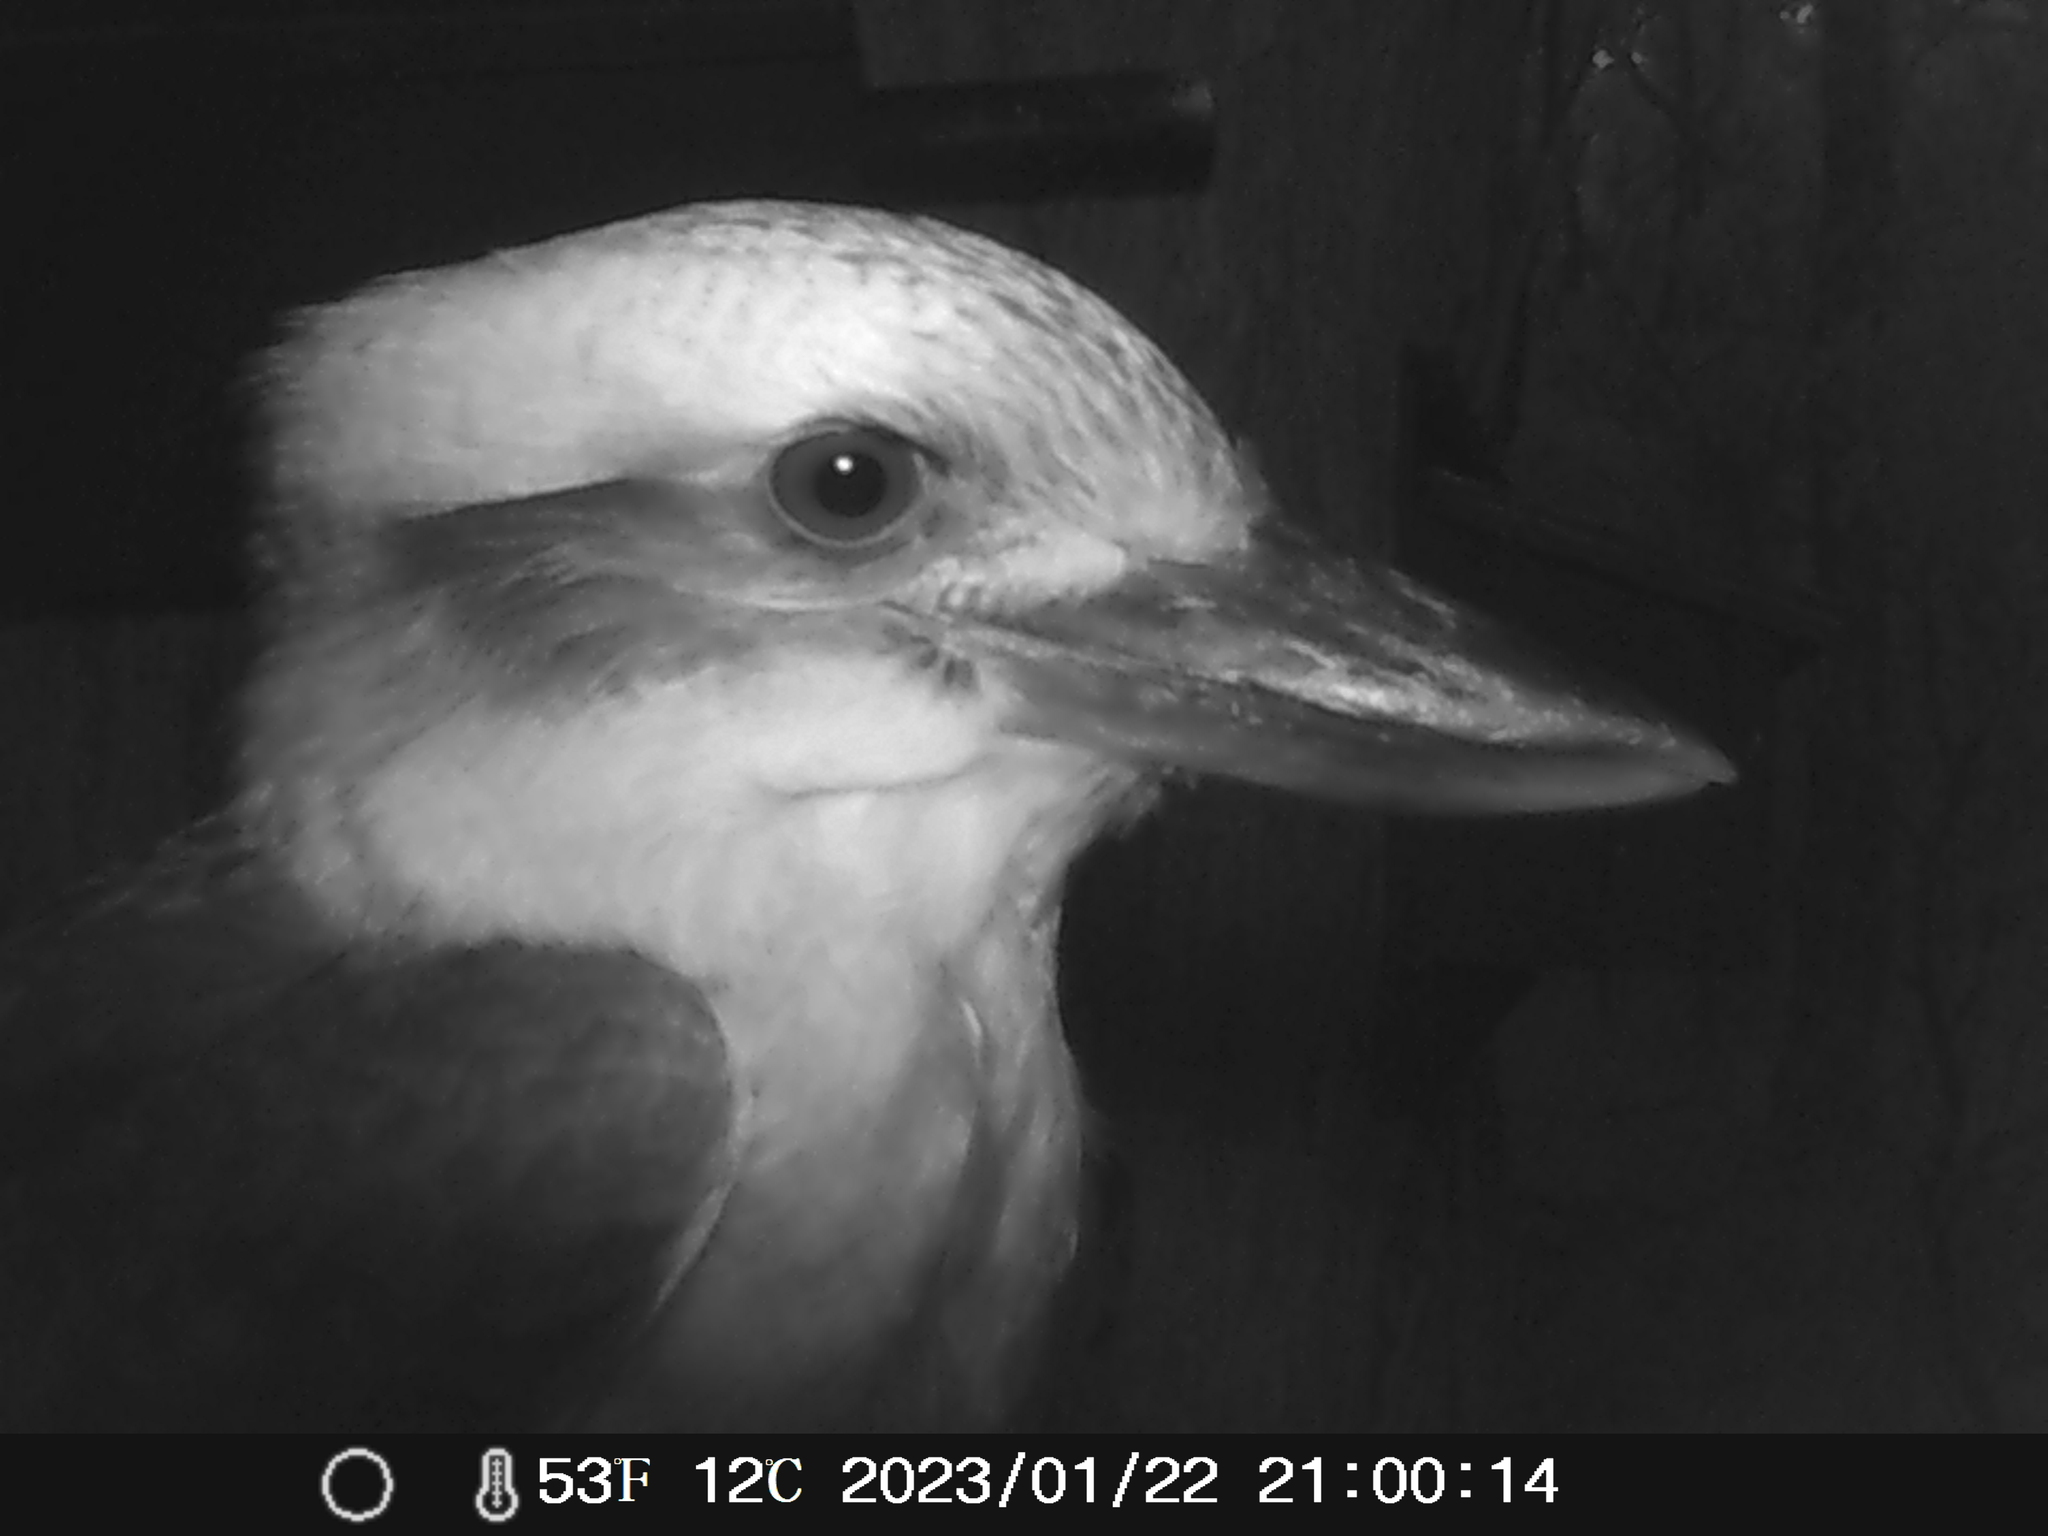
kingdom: Animalia
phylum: Chordata
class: Aves
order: Coraciiformes
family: Alcedinidae
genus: Dacelo
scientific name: Dacelo novaeguineae
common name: Laughing kookaburra
